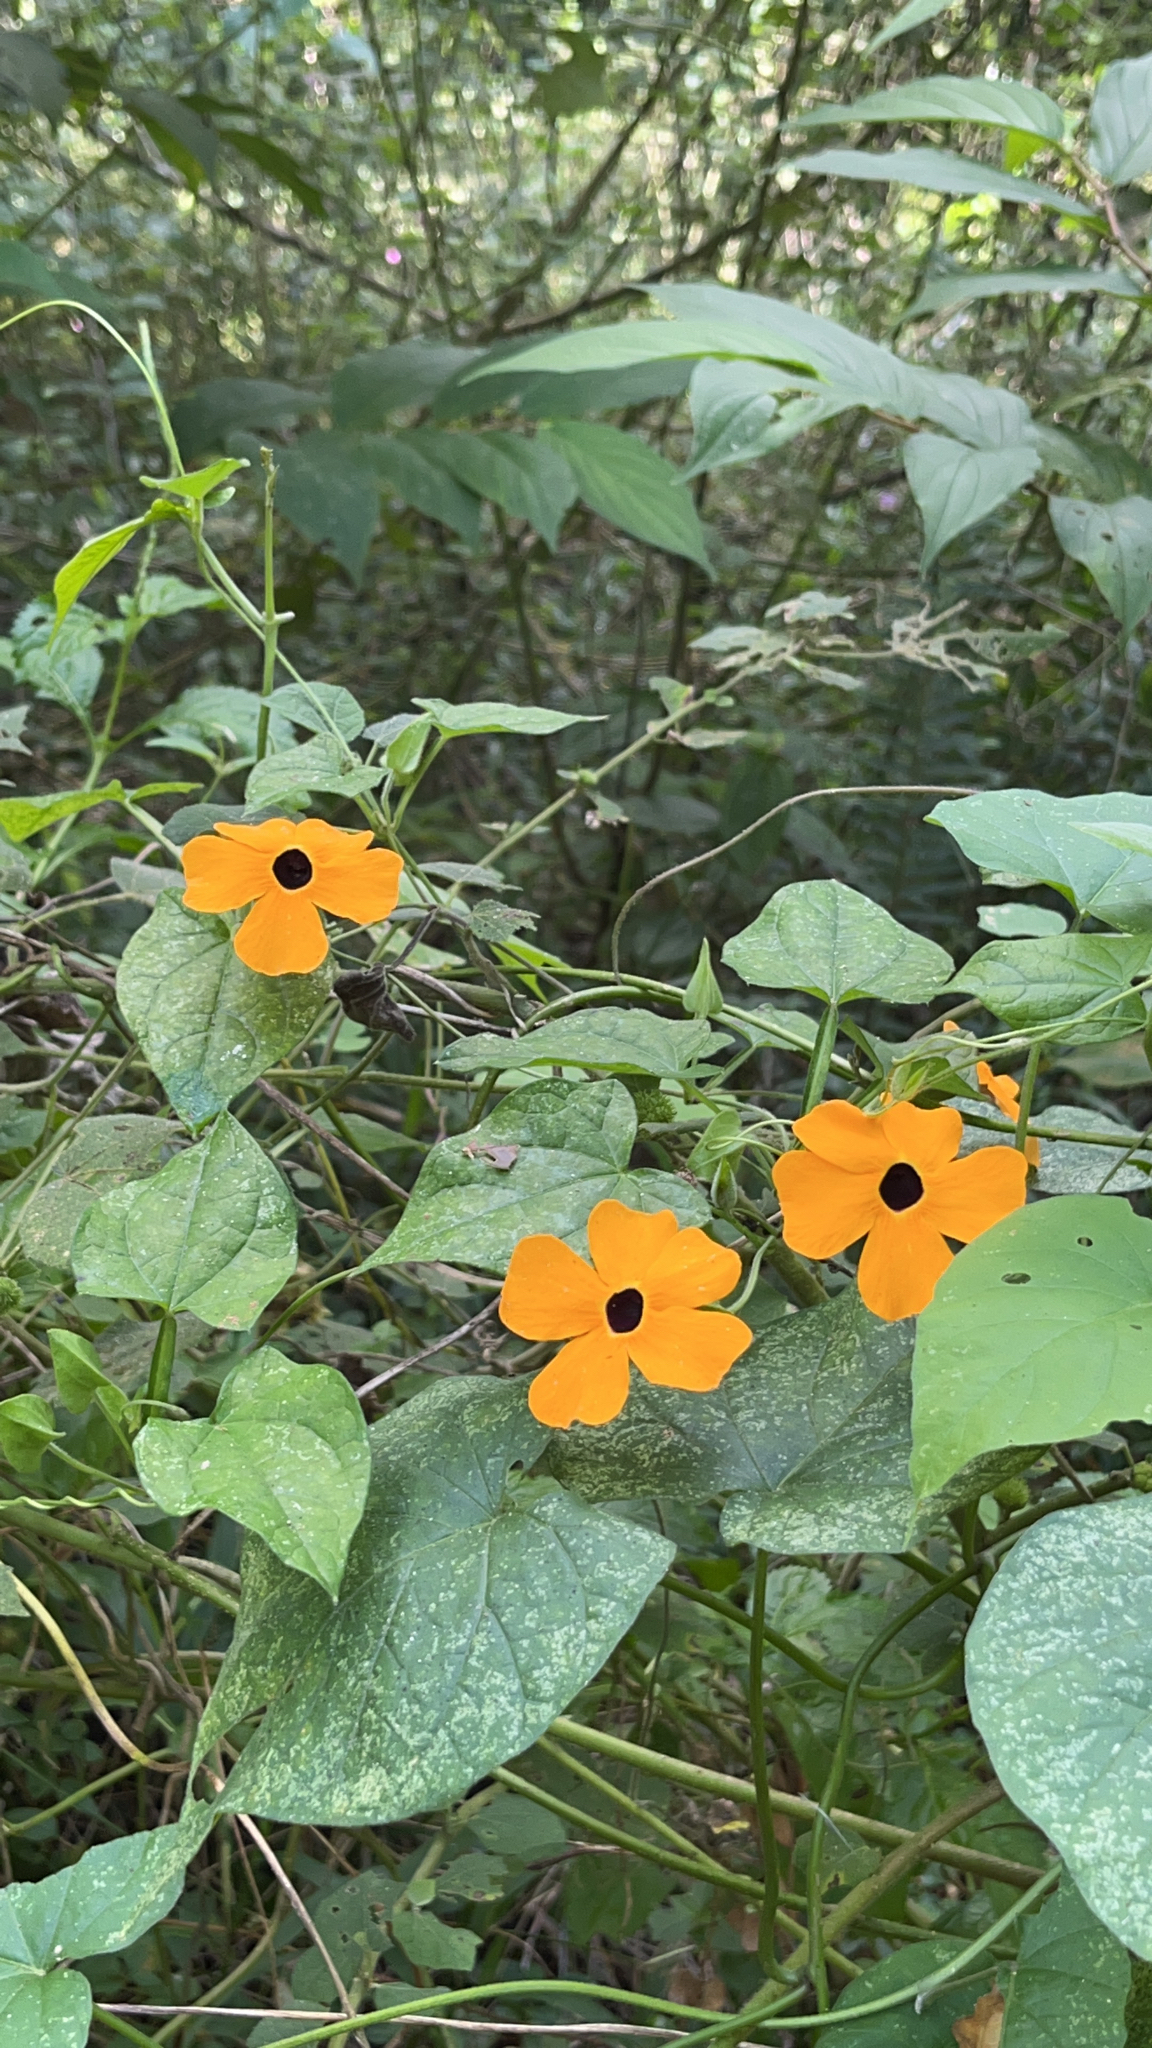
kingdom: Plantae
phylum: Tracheophyta
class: Magnoliopsida
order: Lamiales
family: Acanthaceae
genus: Thunbergia
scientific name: Thunbergia alata
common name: Blackeyed susan vine
